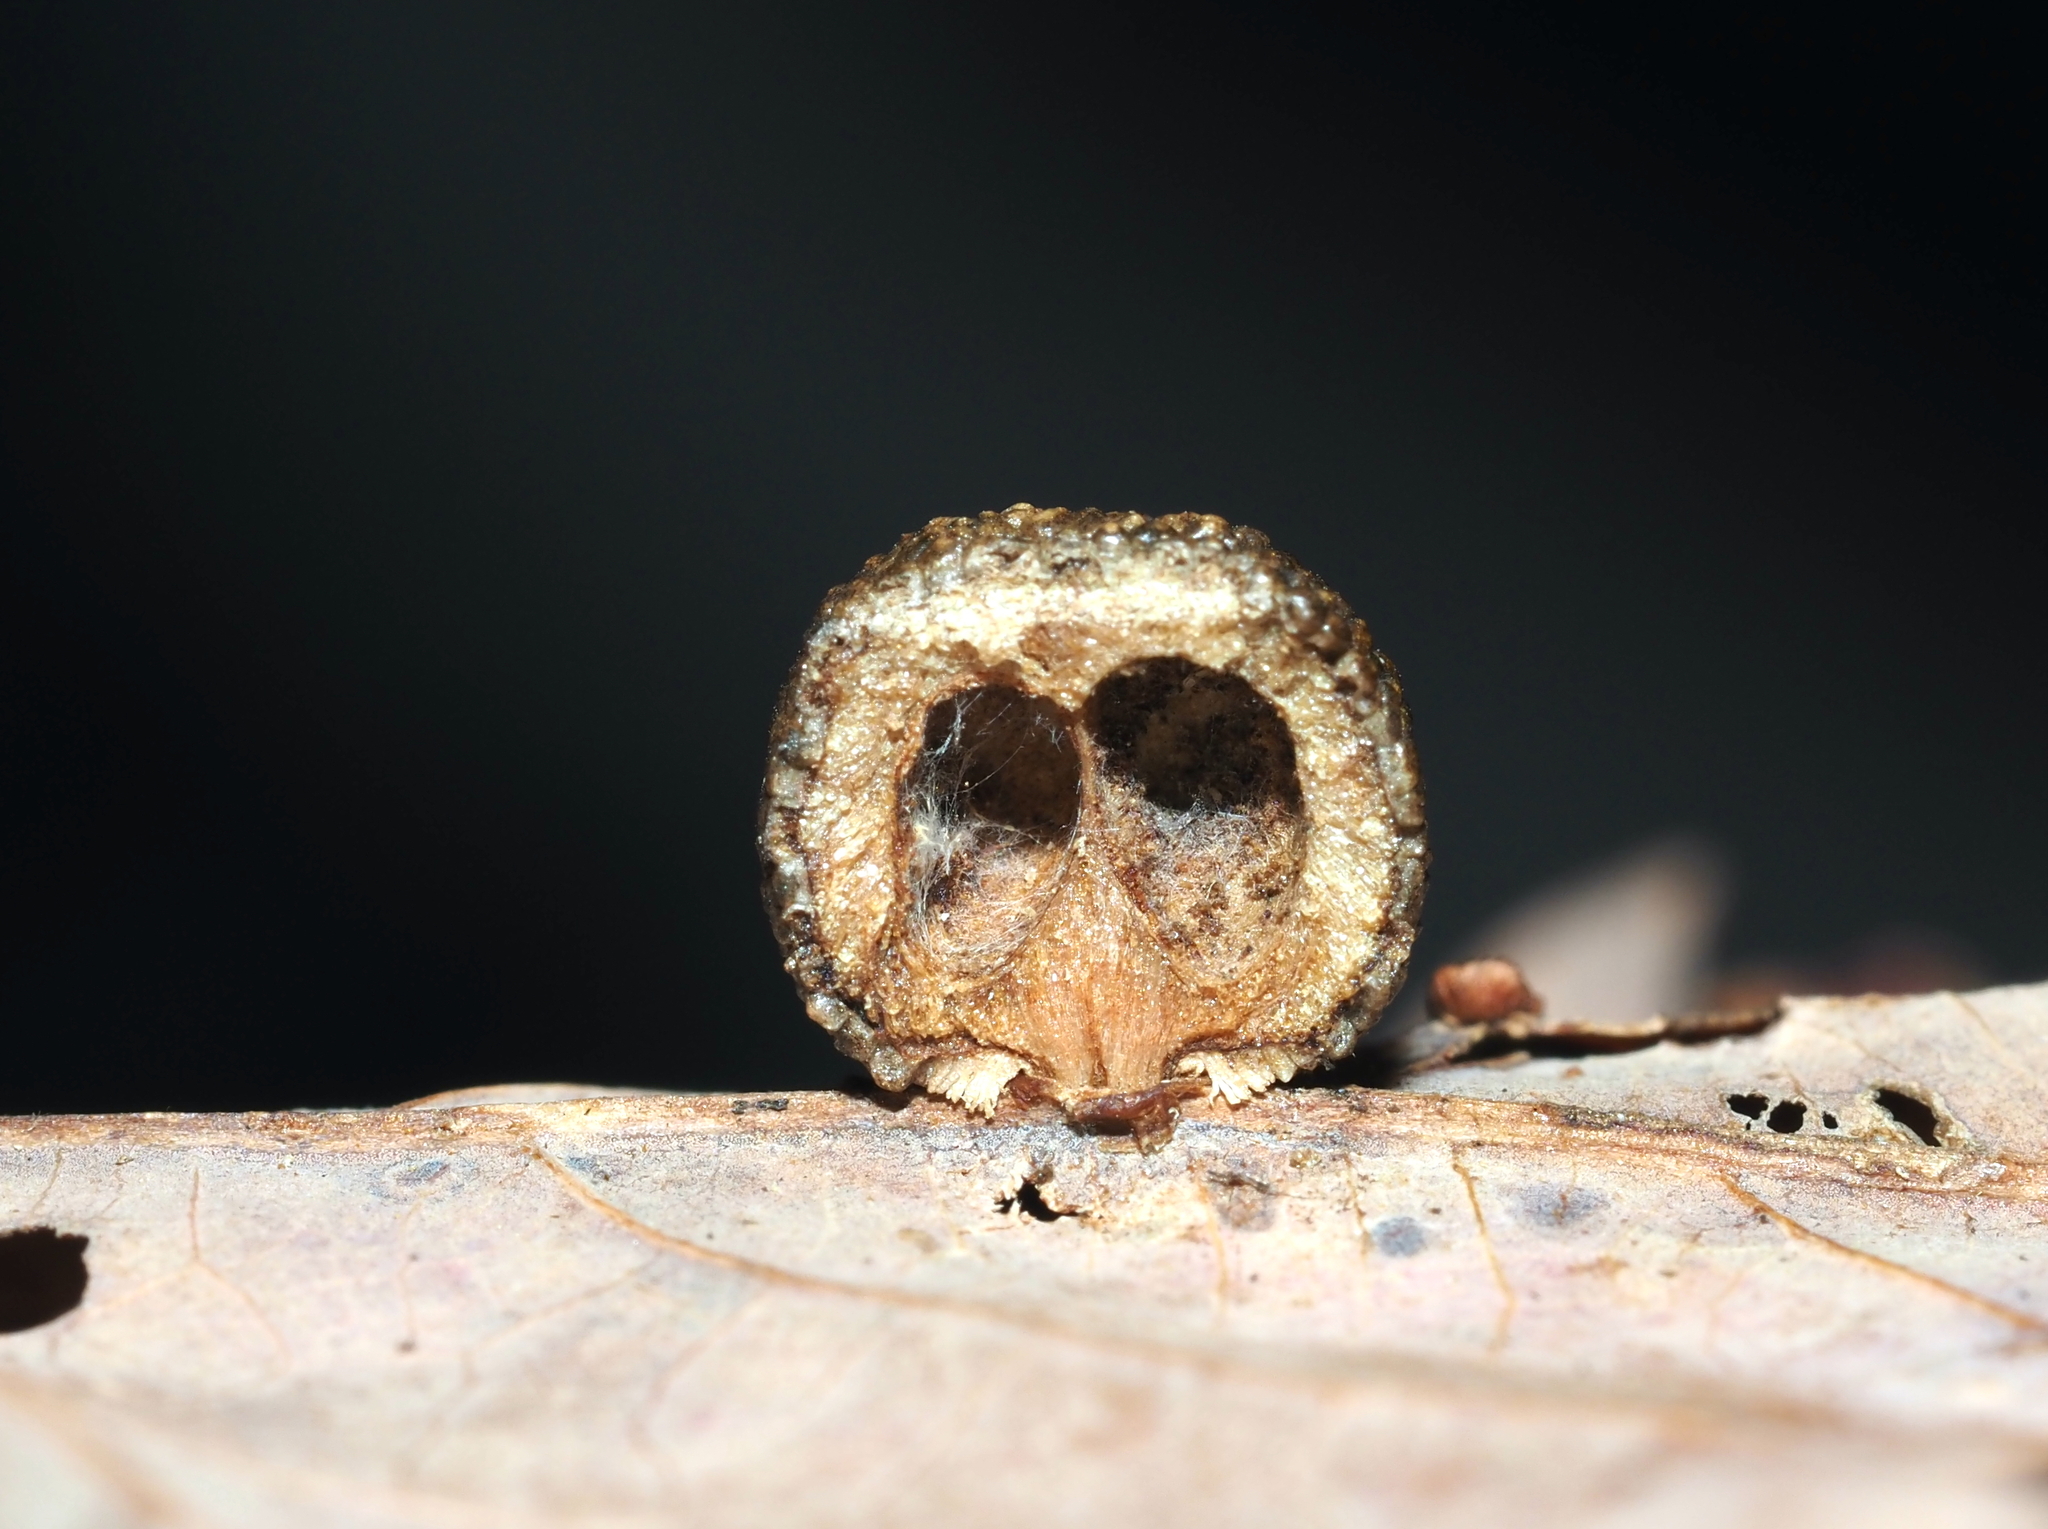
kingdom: Animalia
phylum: Arthropoda
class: Insecta
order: Hymenoptera
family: Cynipidae
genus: Acraspis
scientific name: Acraspis
